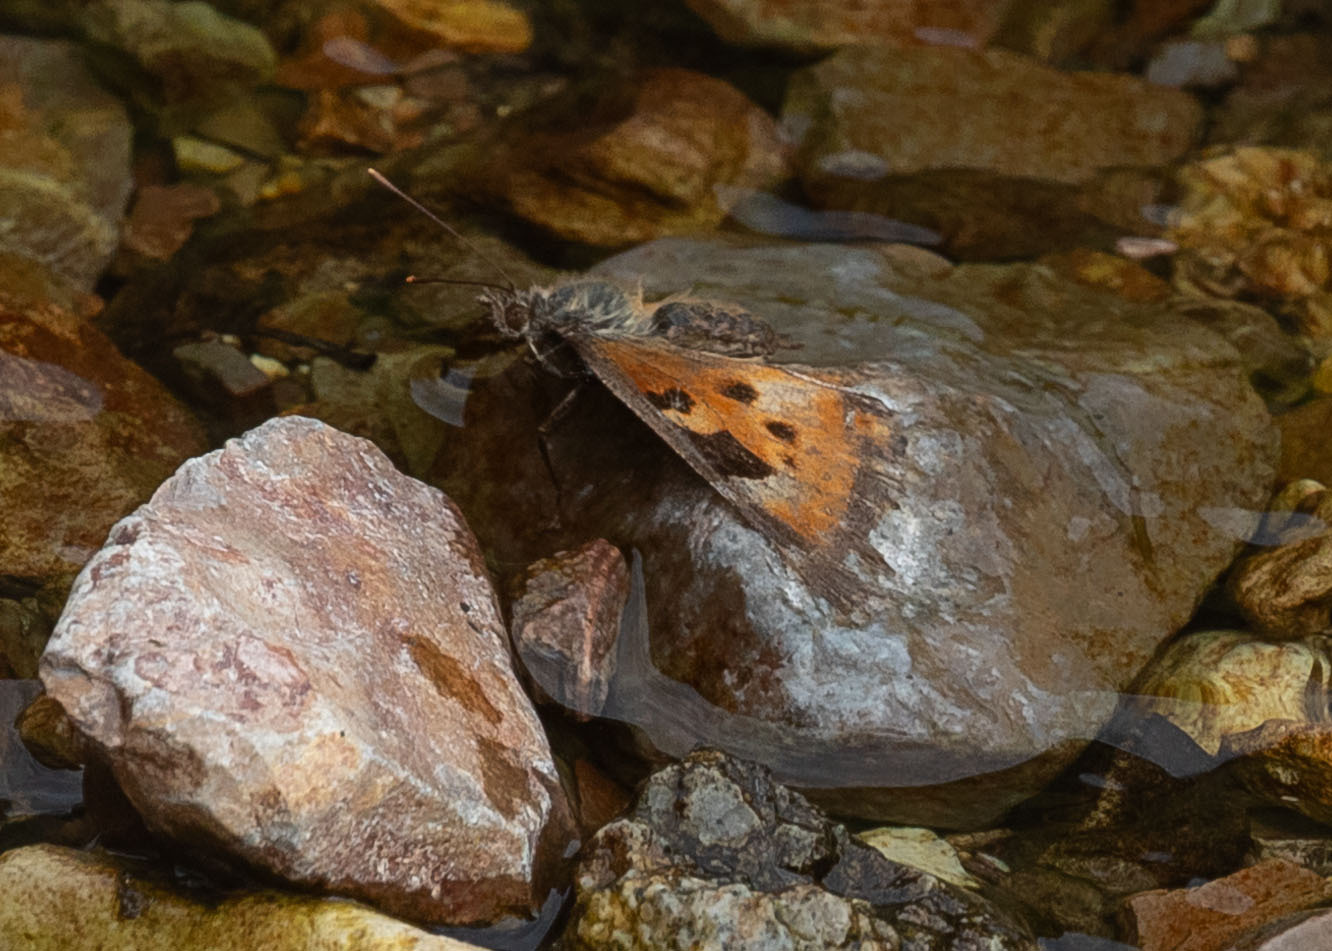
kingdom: Animalia
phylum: Arthropoda
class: Insecta
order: Lepidoptera
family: Nymphalidae
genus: Nymphalis
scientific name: Nymphalis californica
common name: California tortoiseshell
